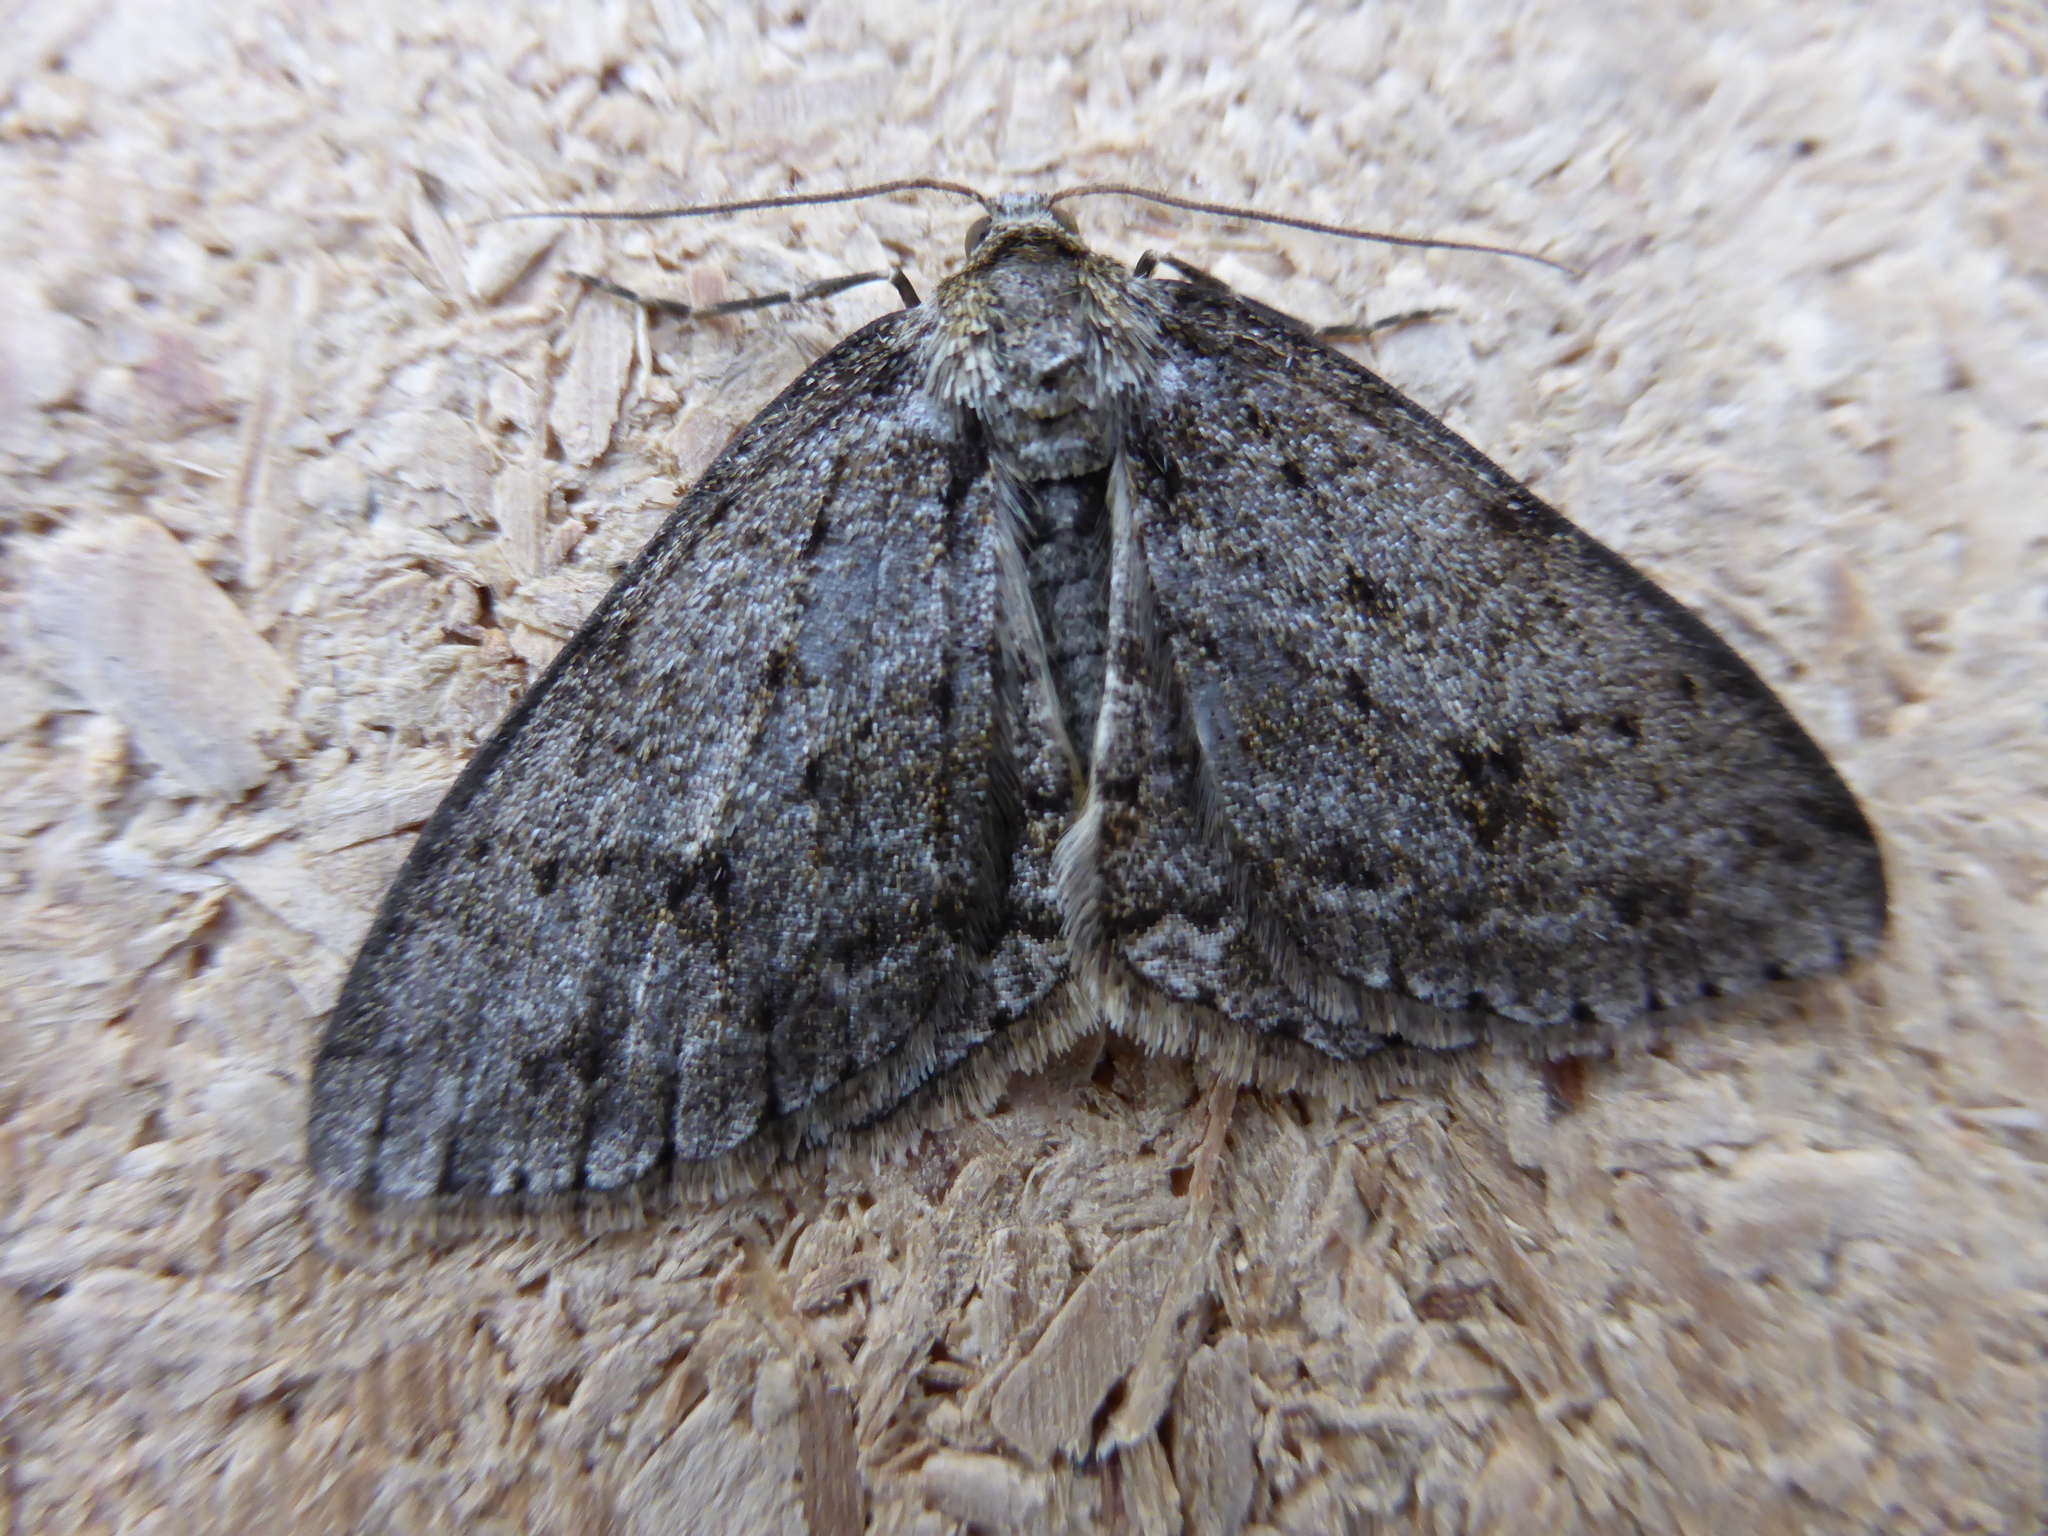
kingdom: Animalia
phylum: Arthropoda
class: Insecta
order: Lepidoptera
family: Geometridae
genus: Ectropis
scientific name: Ectropis crepuscularia
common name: Engrailed
